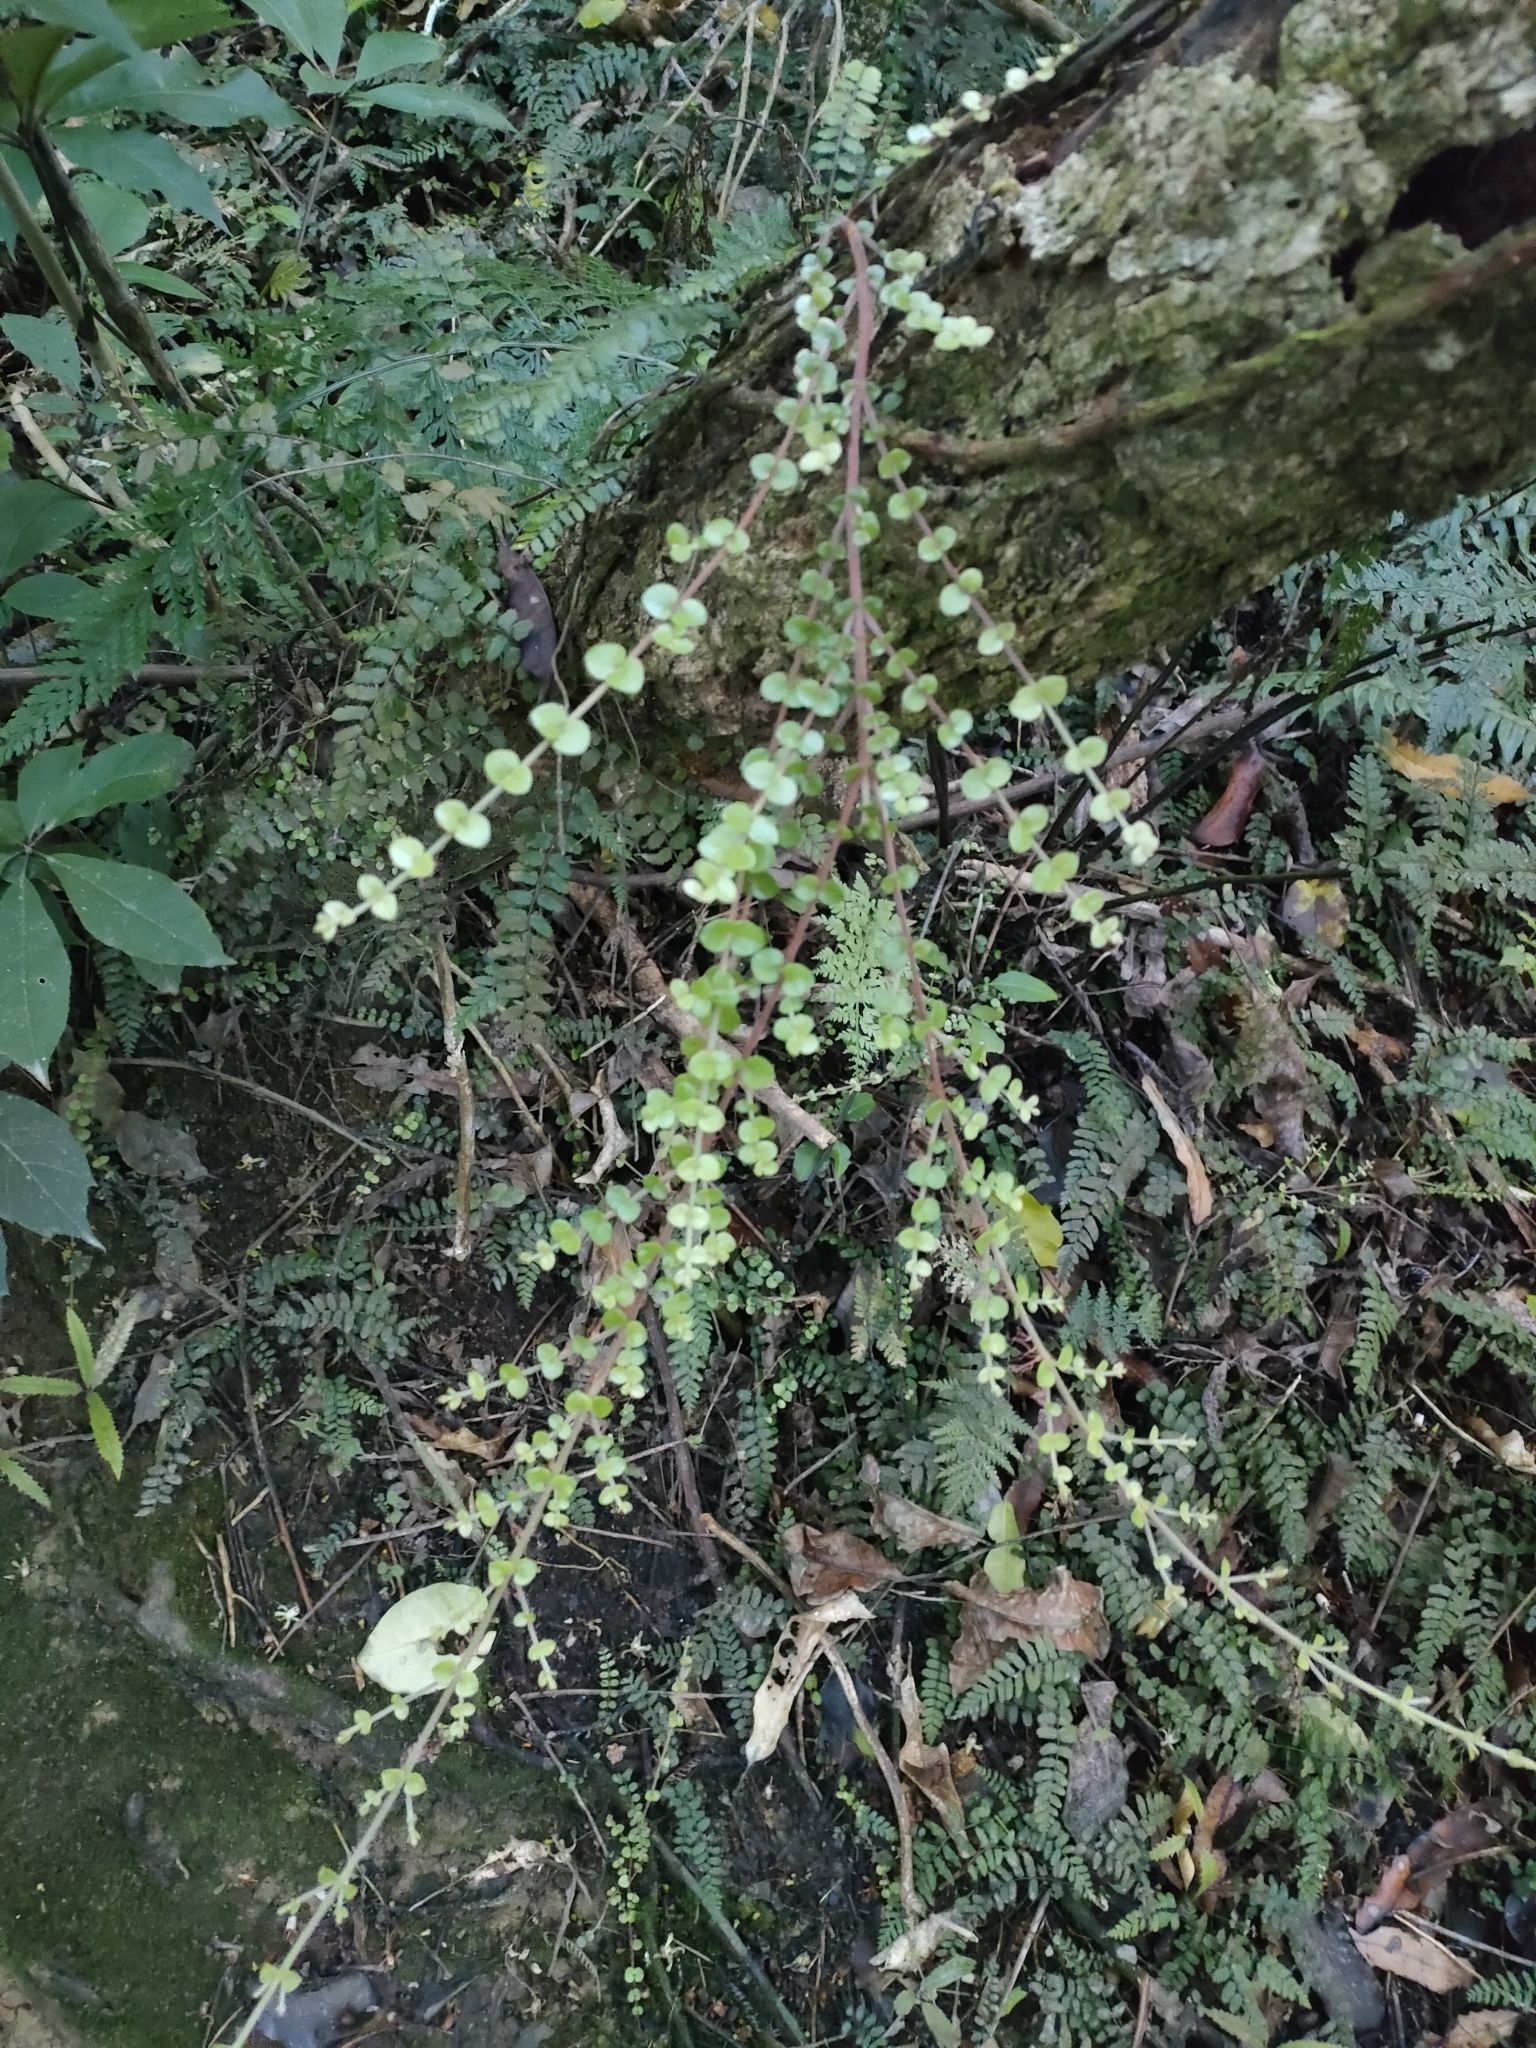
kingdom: Plantae
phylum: Tracheophyta
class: Magnoliopsida
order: Myrtales
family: Myrtaceae
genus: Metrosideros
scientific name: Metrosideros perforata
